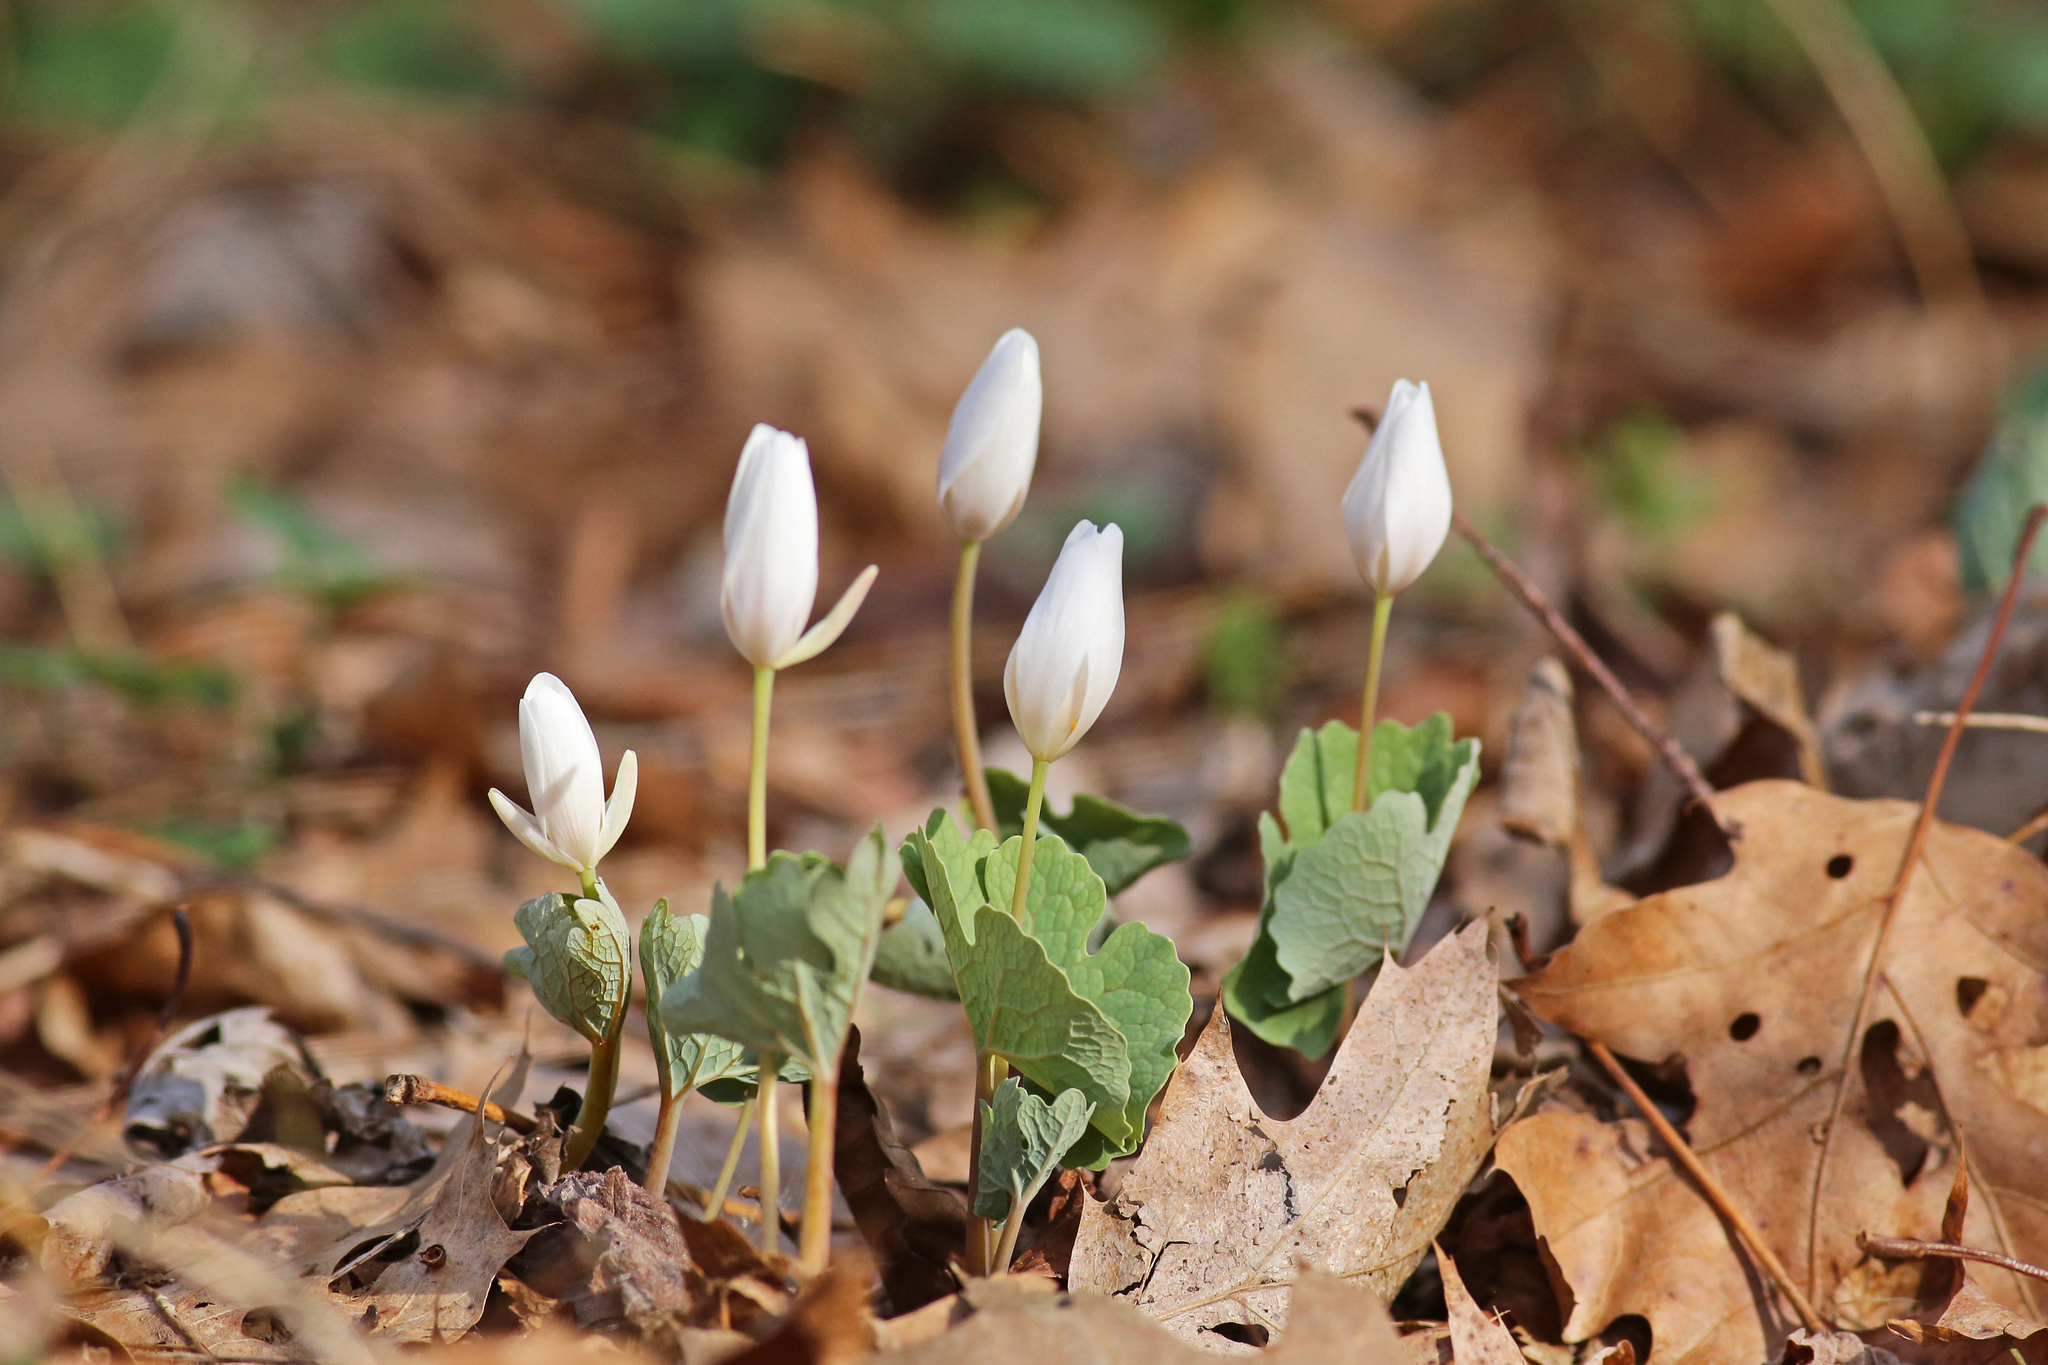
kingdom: Plantae
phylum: Tracheophyta
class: Magnoliopsida
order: Ranunculales
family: Papaveraceae
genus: Sanguinaria
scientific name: Sanguinaria canadensis
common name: Bloodroot
